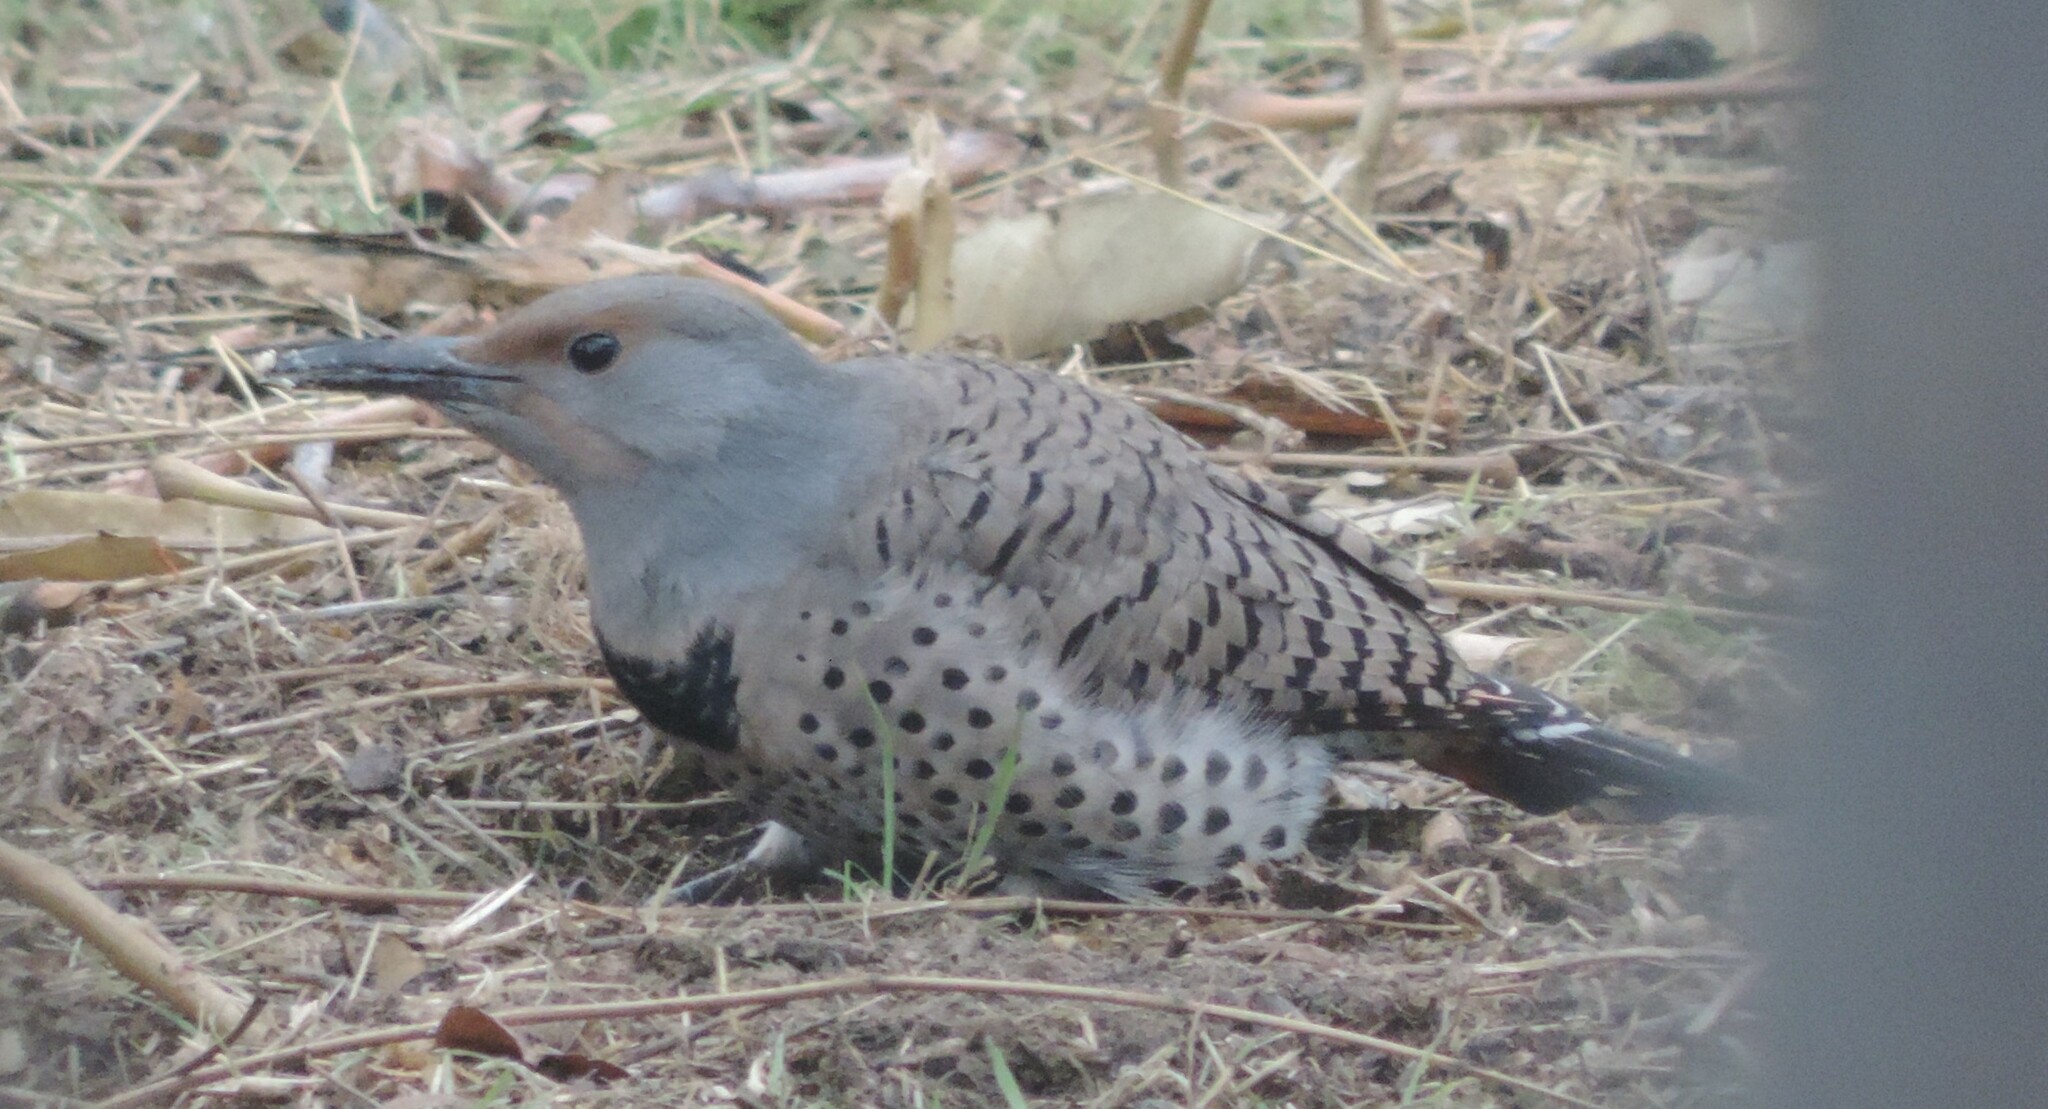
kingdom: Animalia
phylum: Chordata
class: Aves
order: Piciformes
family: Picidae
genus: Colaptes
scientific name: Colaptes auratus
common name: Northern flicker
